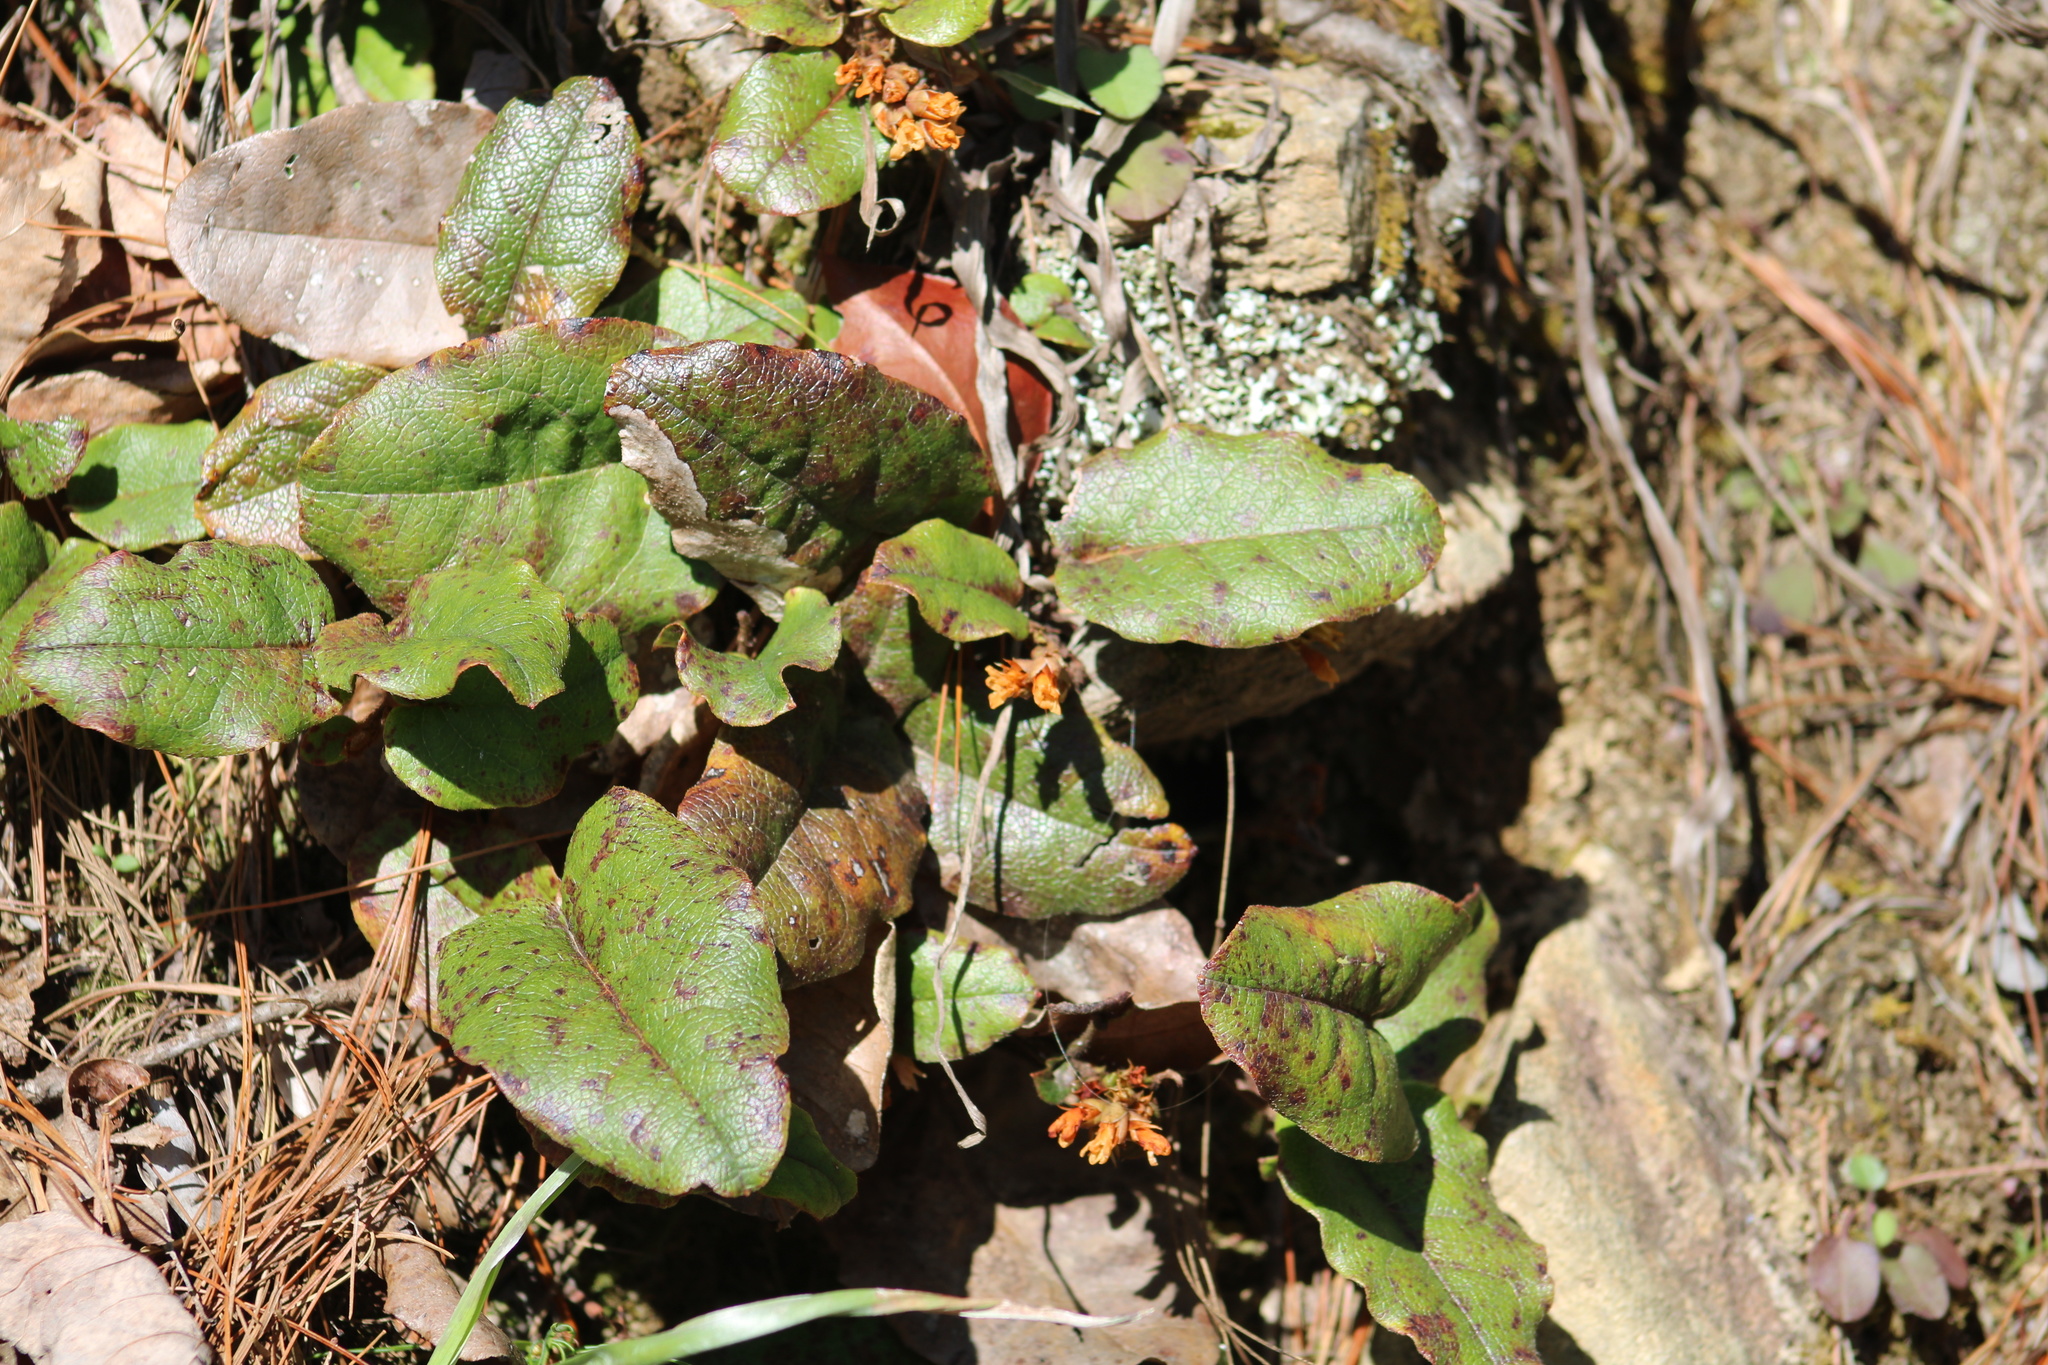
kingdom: Plantae
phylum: Tracheophyta
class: Magnoliopsida
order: Ericales
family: Ericaceae
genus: Epigaea
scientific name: Epigaea repens
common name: Gravelroot
